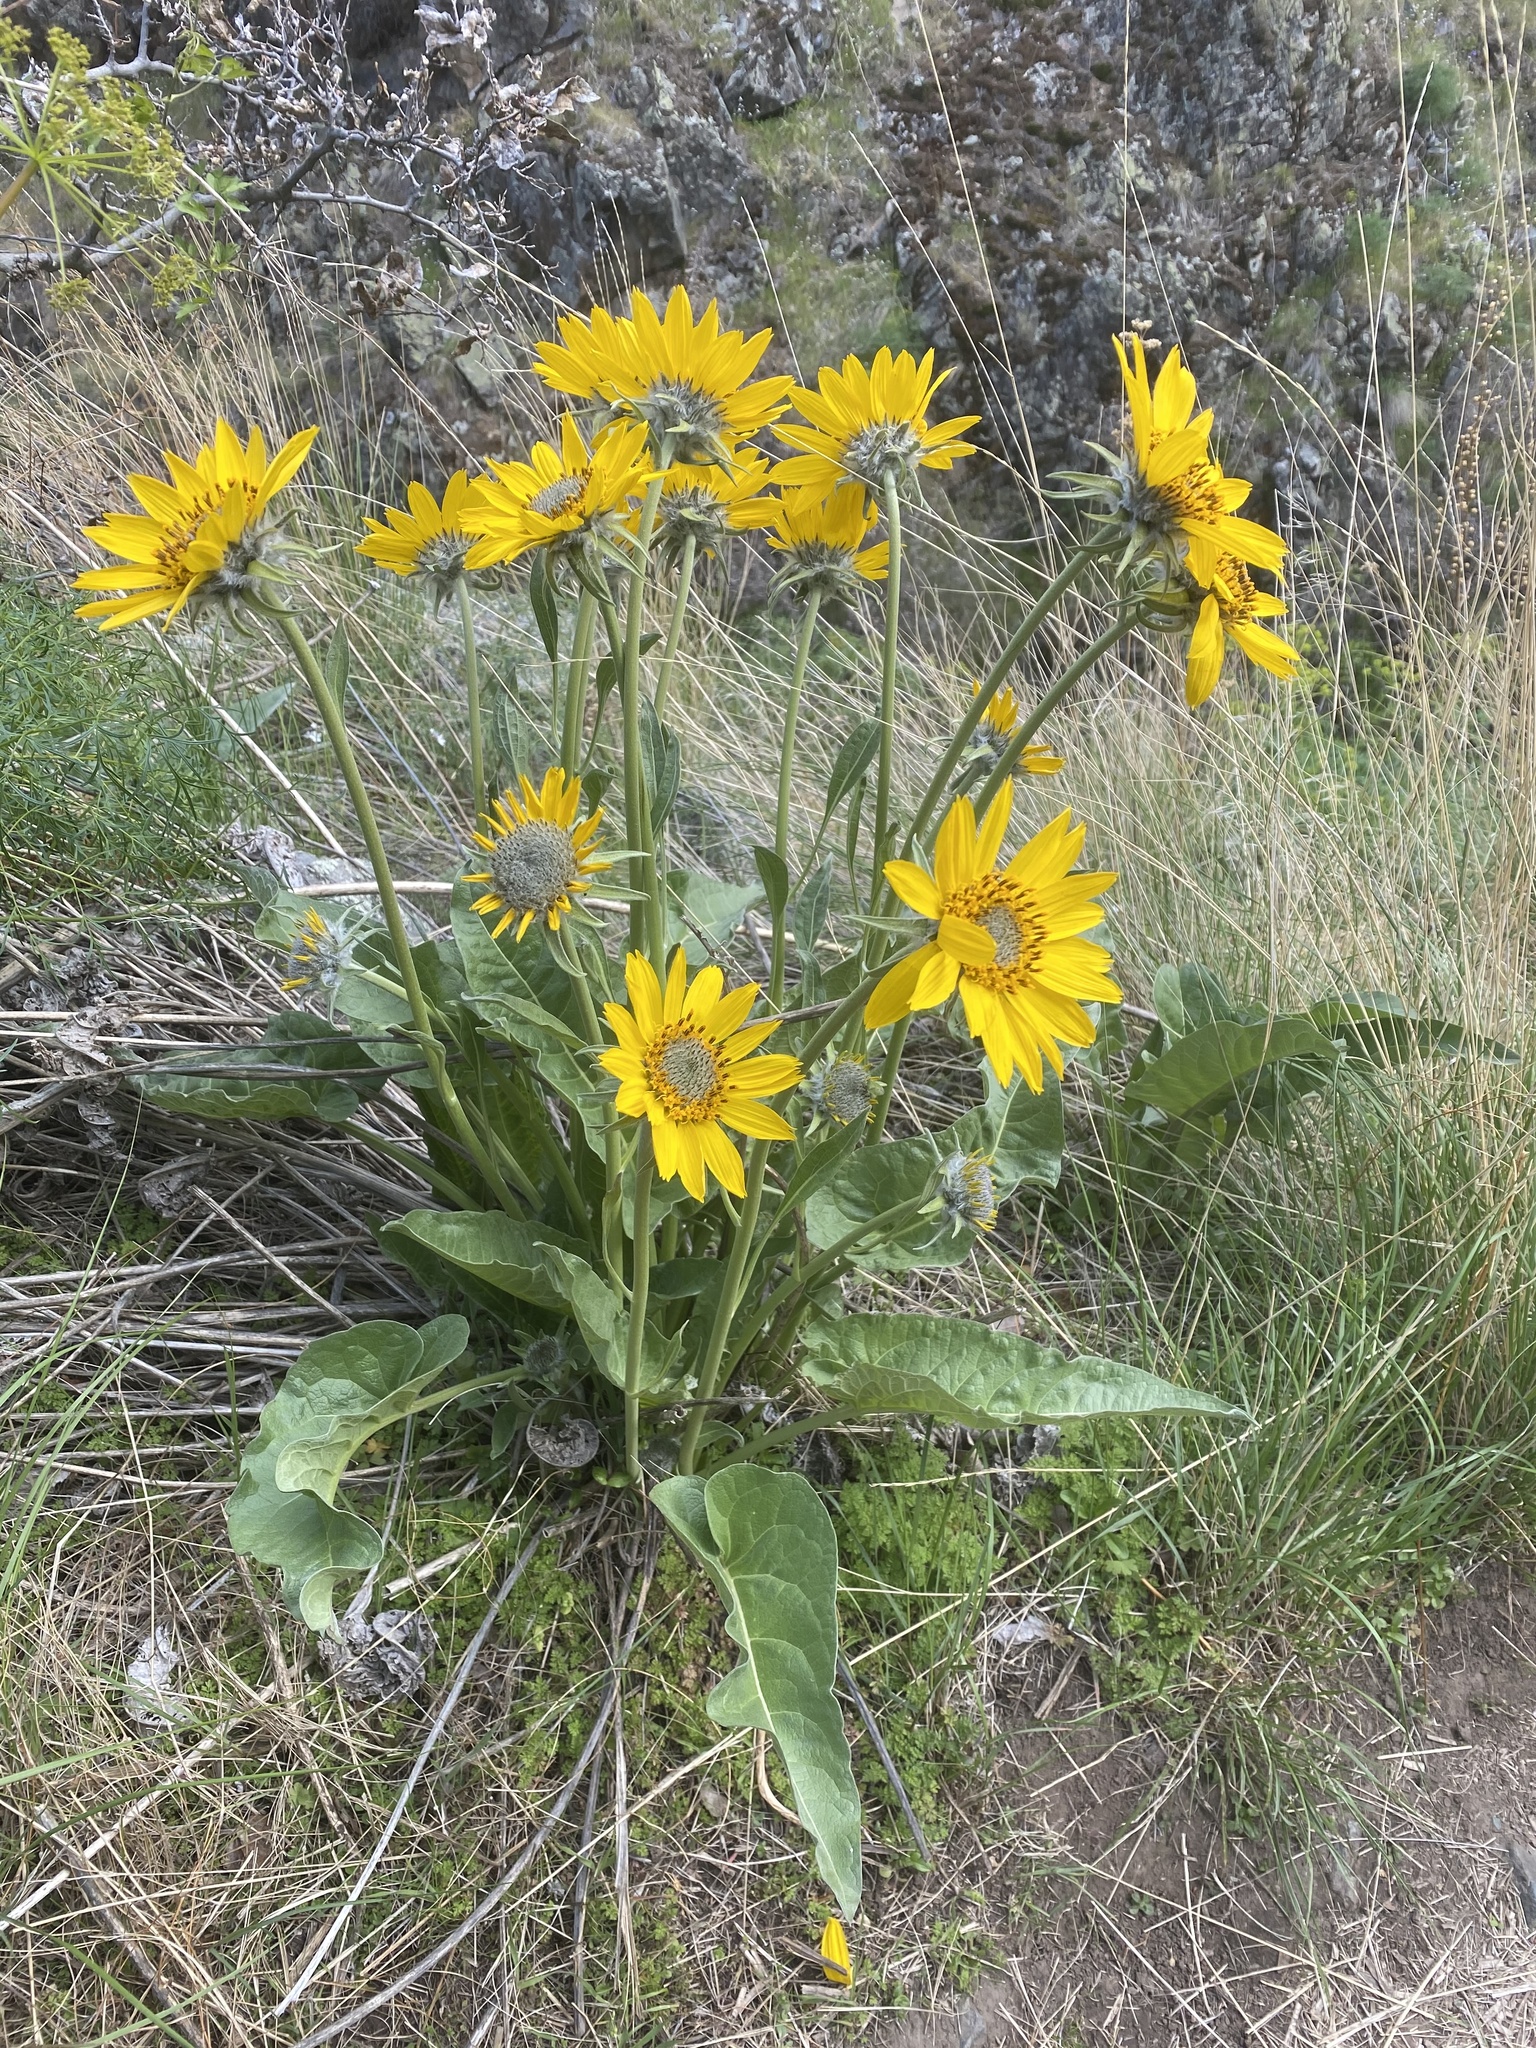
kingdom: Plantae
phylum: Tracheophyta
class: Magnoliopsida
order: Asterales
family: Asteraceae
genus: Wyethia
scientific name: Wyethia sagittata
